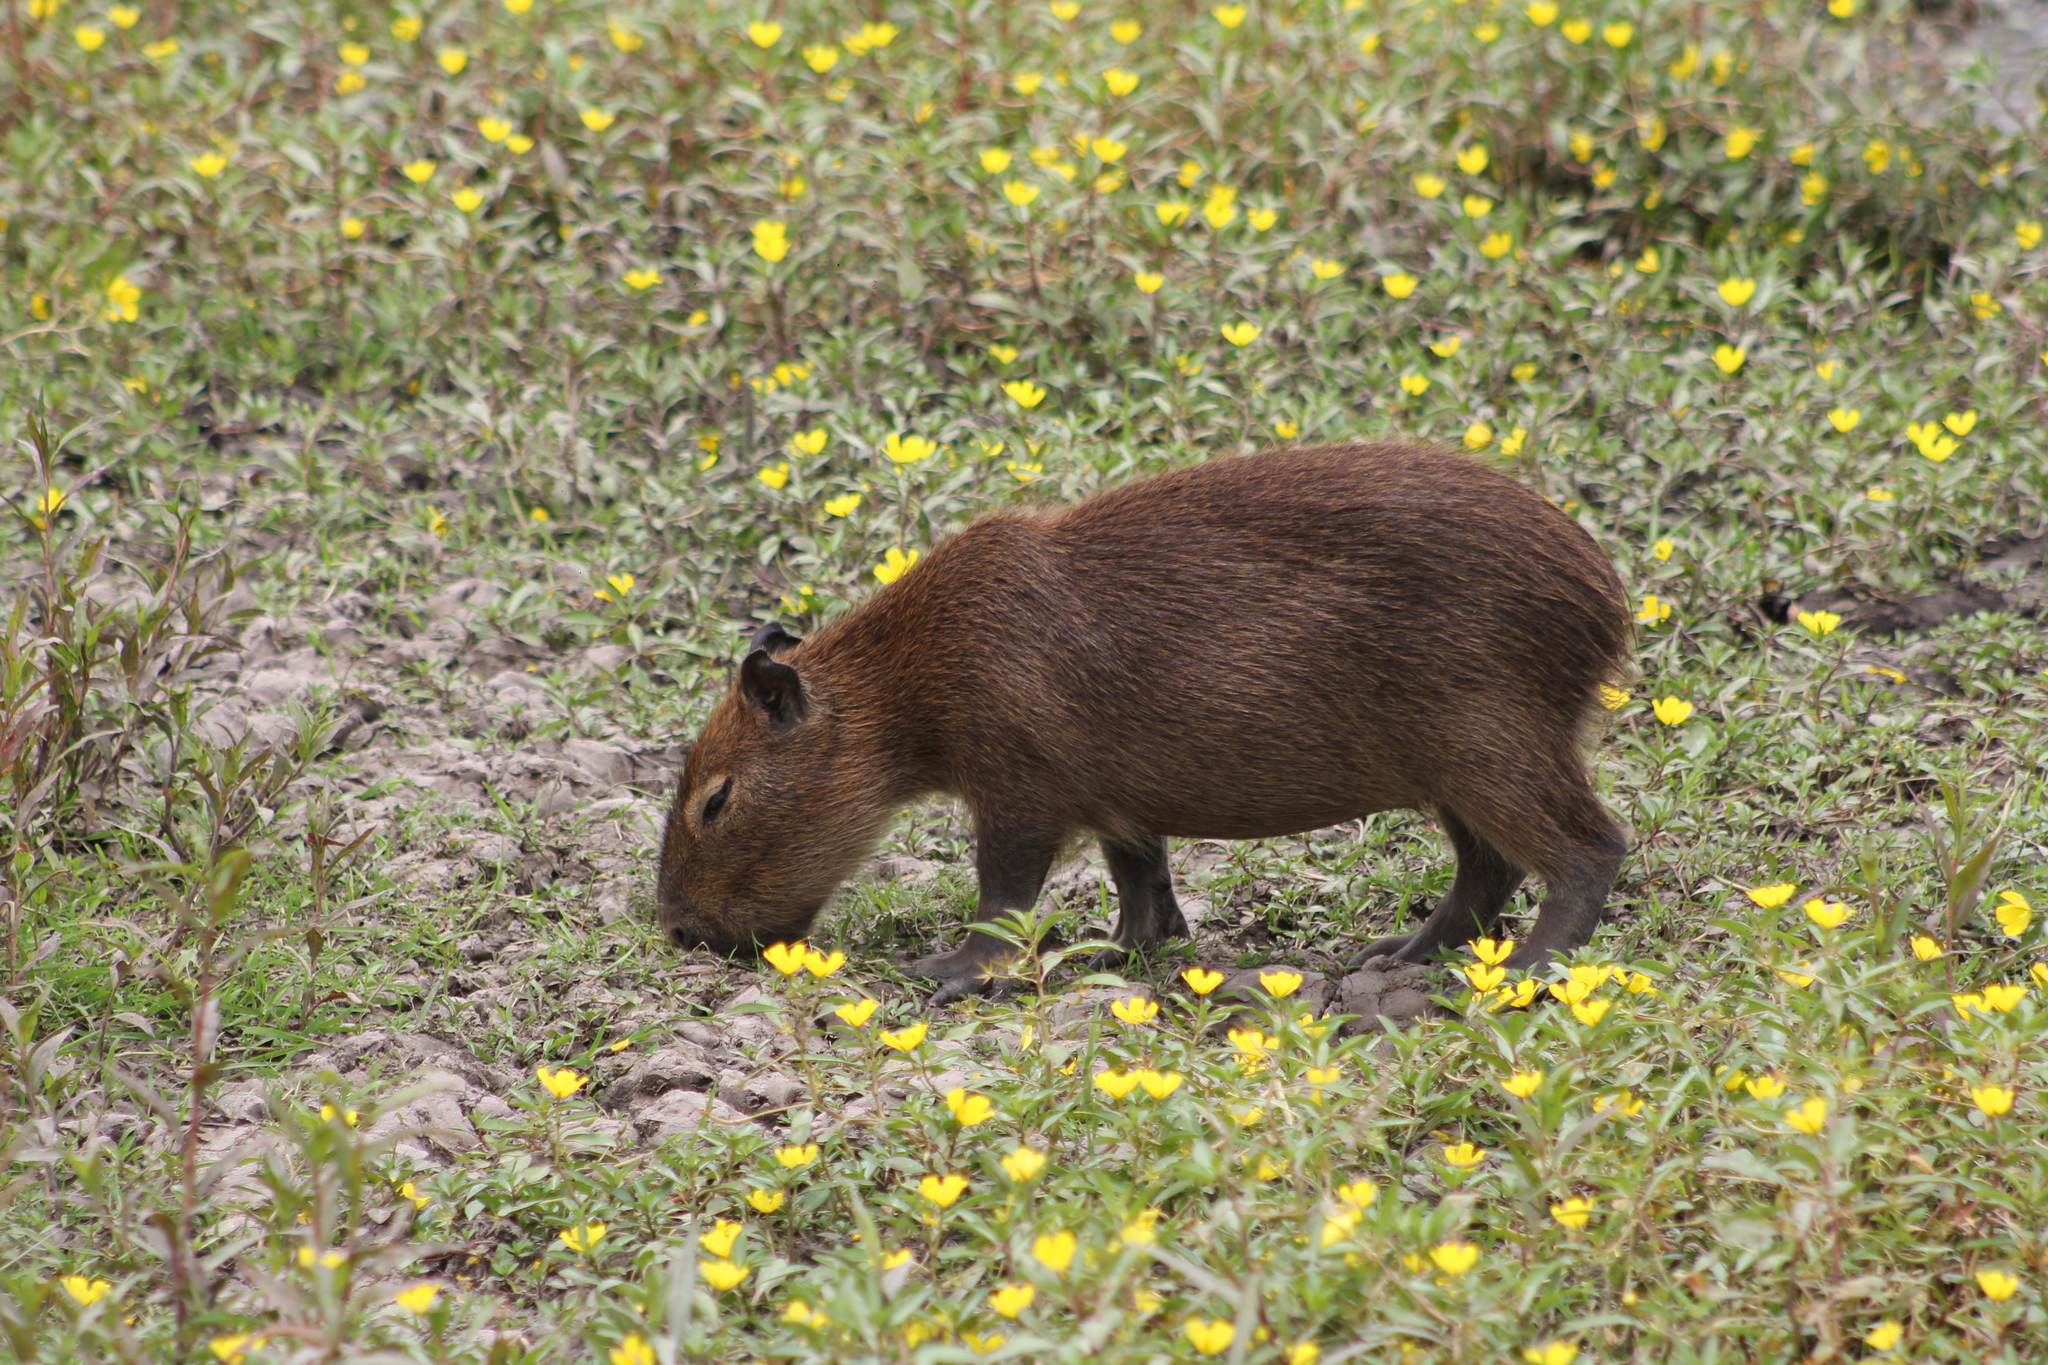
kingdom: Animalia
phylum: Chordata
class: Mammalia
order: Rodentia
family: Caviidae
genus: Hydrochoerus
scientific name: Hydrochoerus hydrochaeris
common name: Capybara
